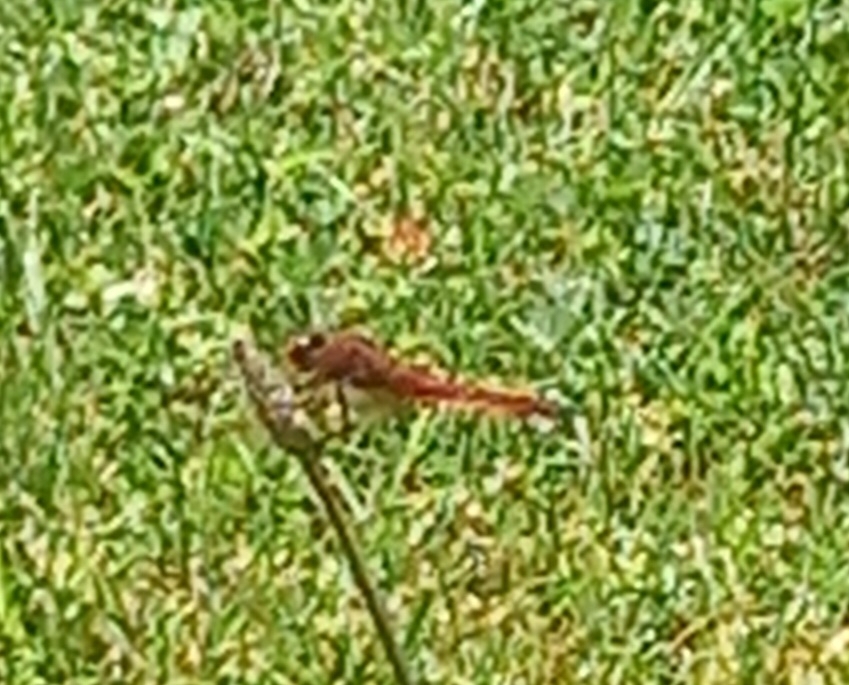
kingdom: Animalia
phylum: Arthropoda
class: Insecta
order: Odonata
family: Libellulidae
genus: Crocothemis
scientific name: Crocothemis erythraea
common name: Scarlet dragonfly
